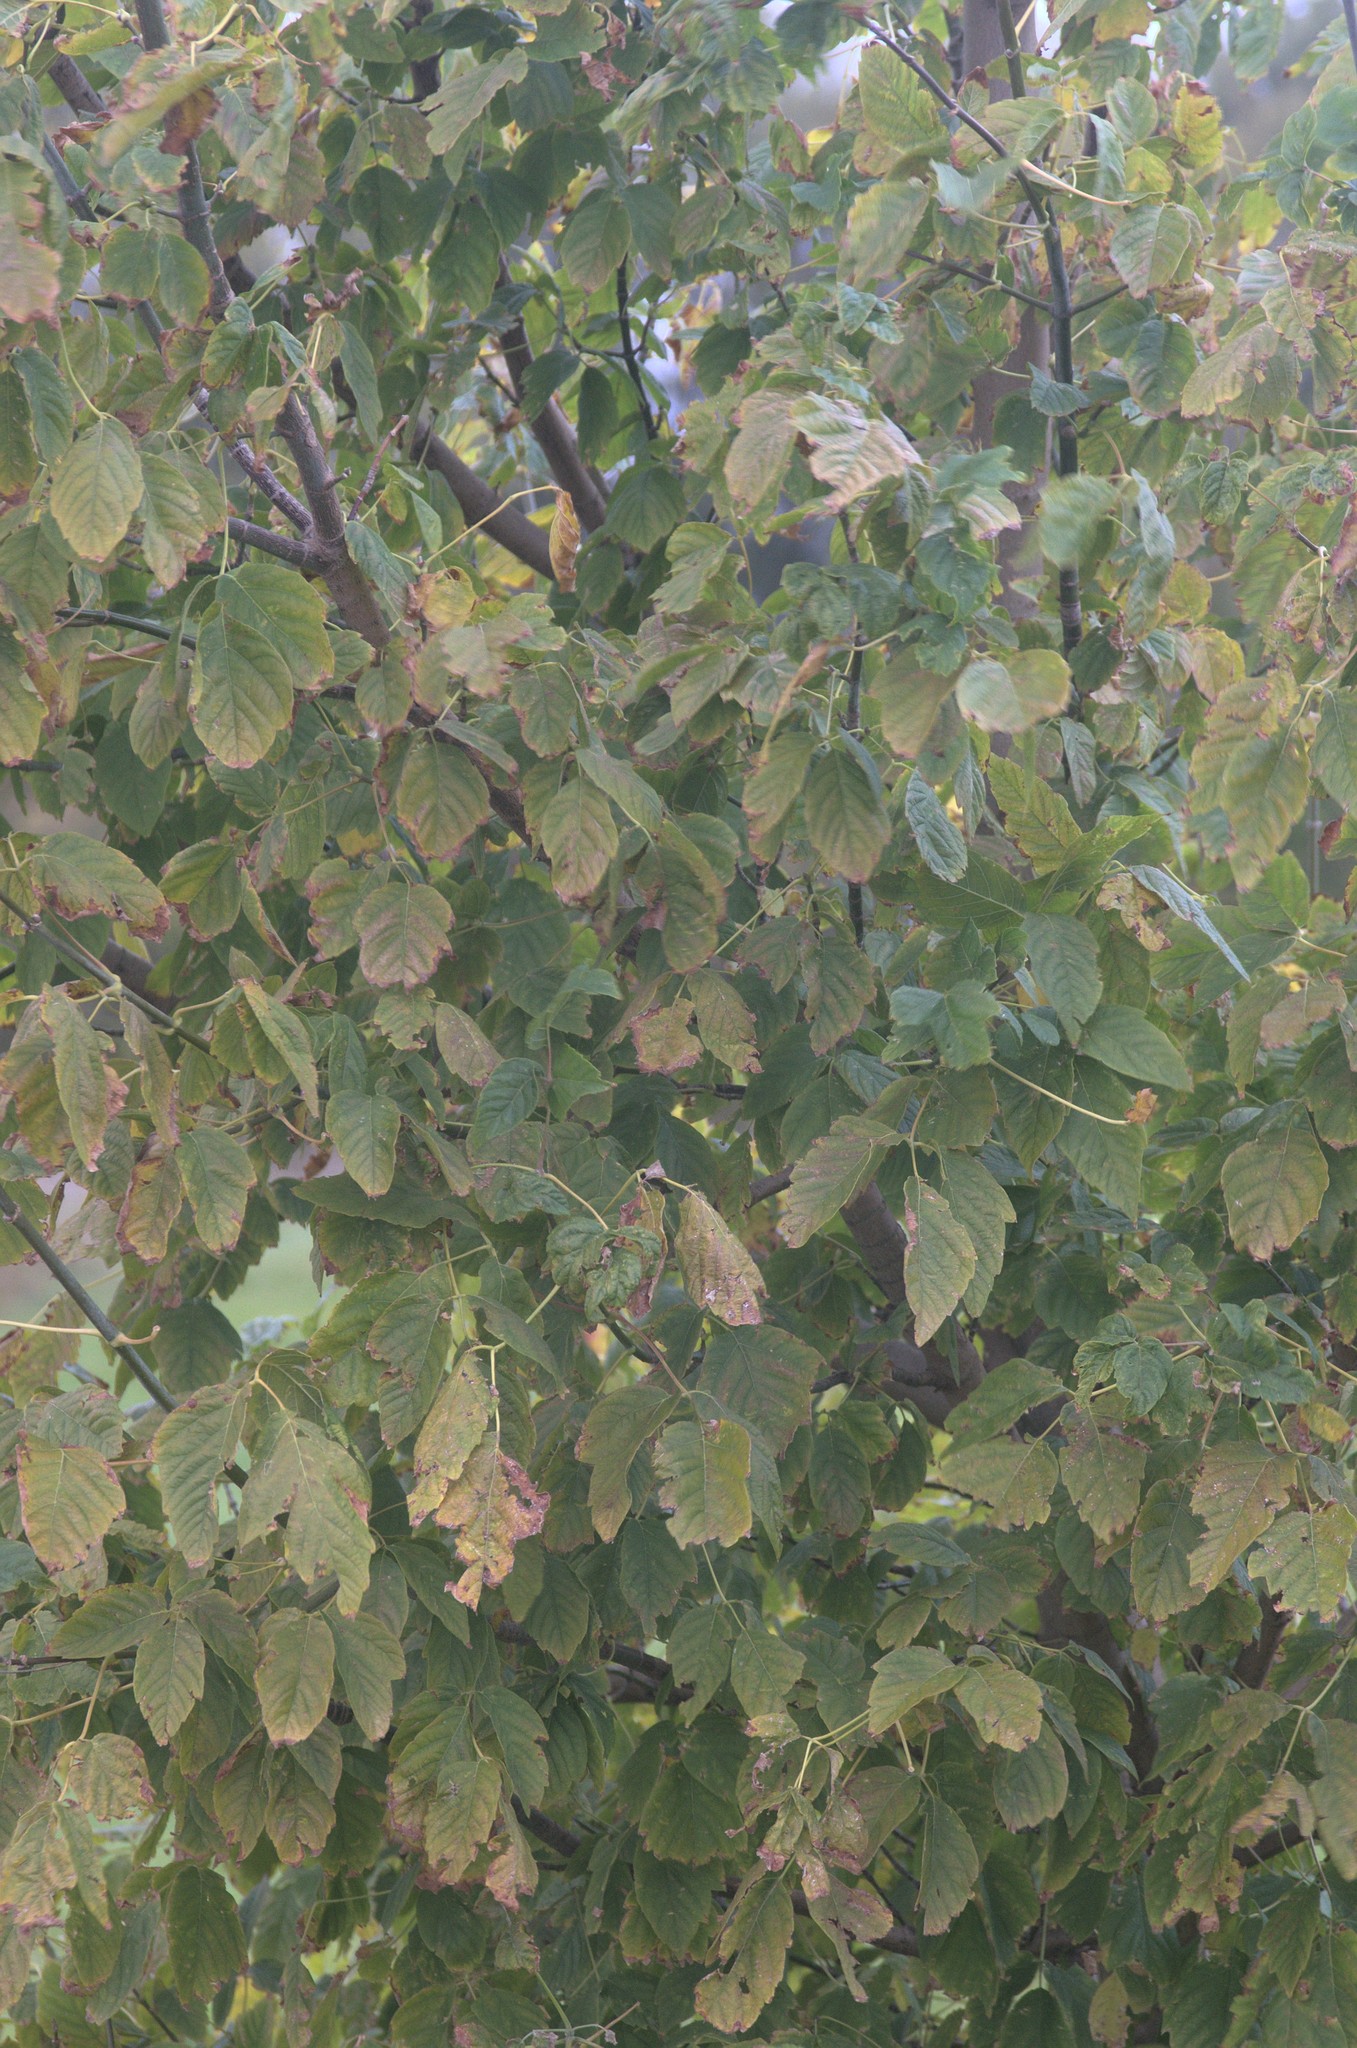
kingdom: Plantae
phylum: Tracheophyta
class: Magnoliopsida
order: Sapindales
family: Sapindaceae
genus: Acer
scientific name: Acer negundo
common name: Ashleaf maple
